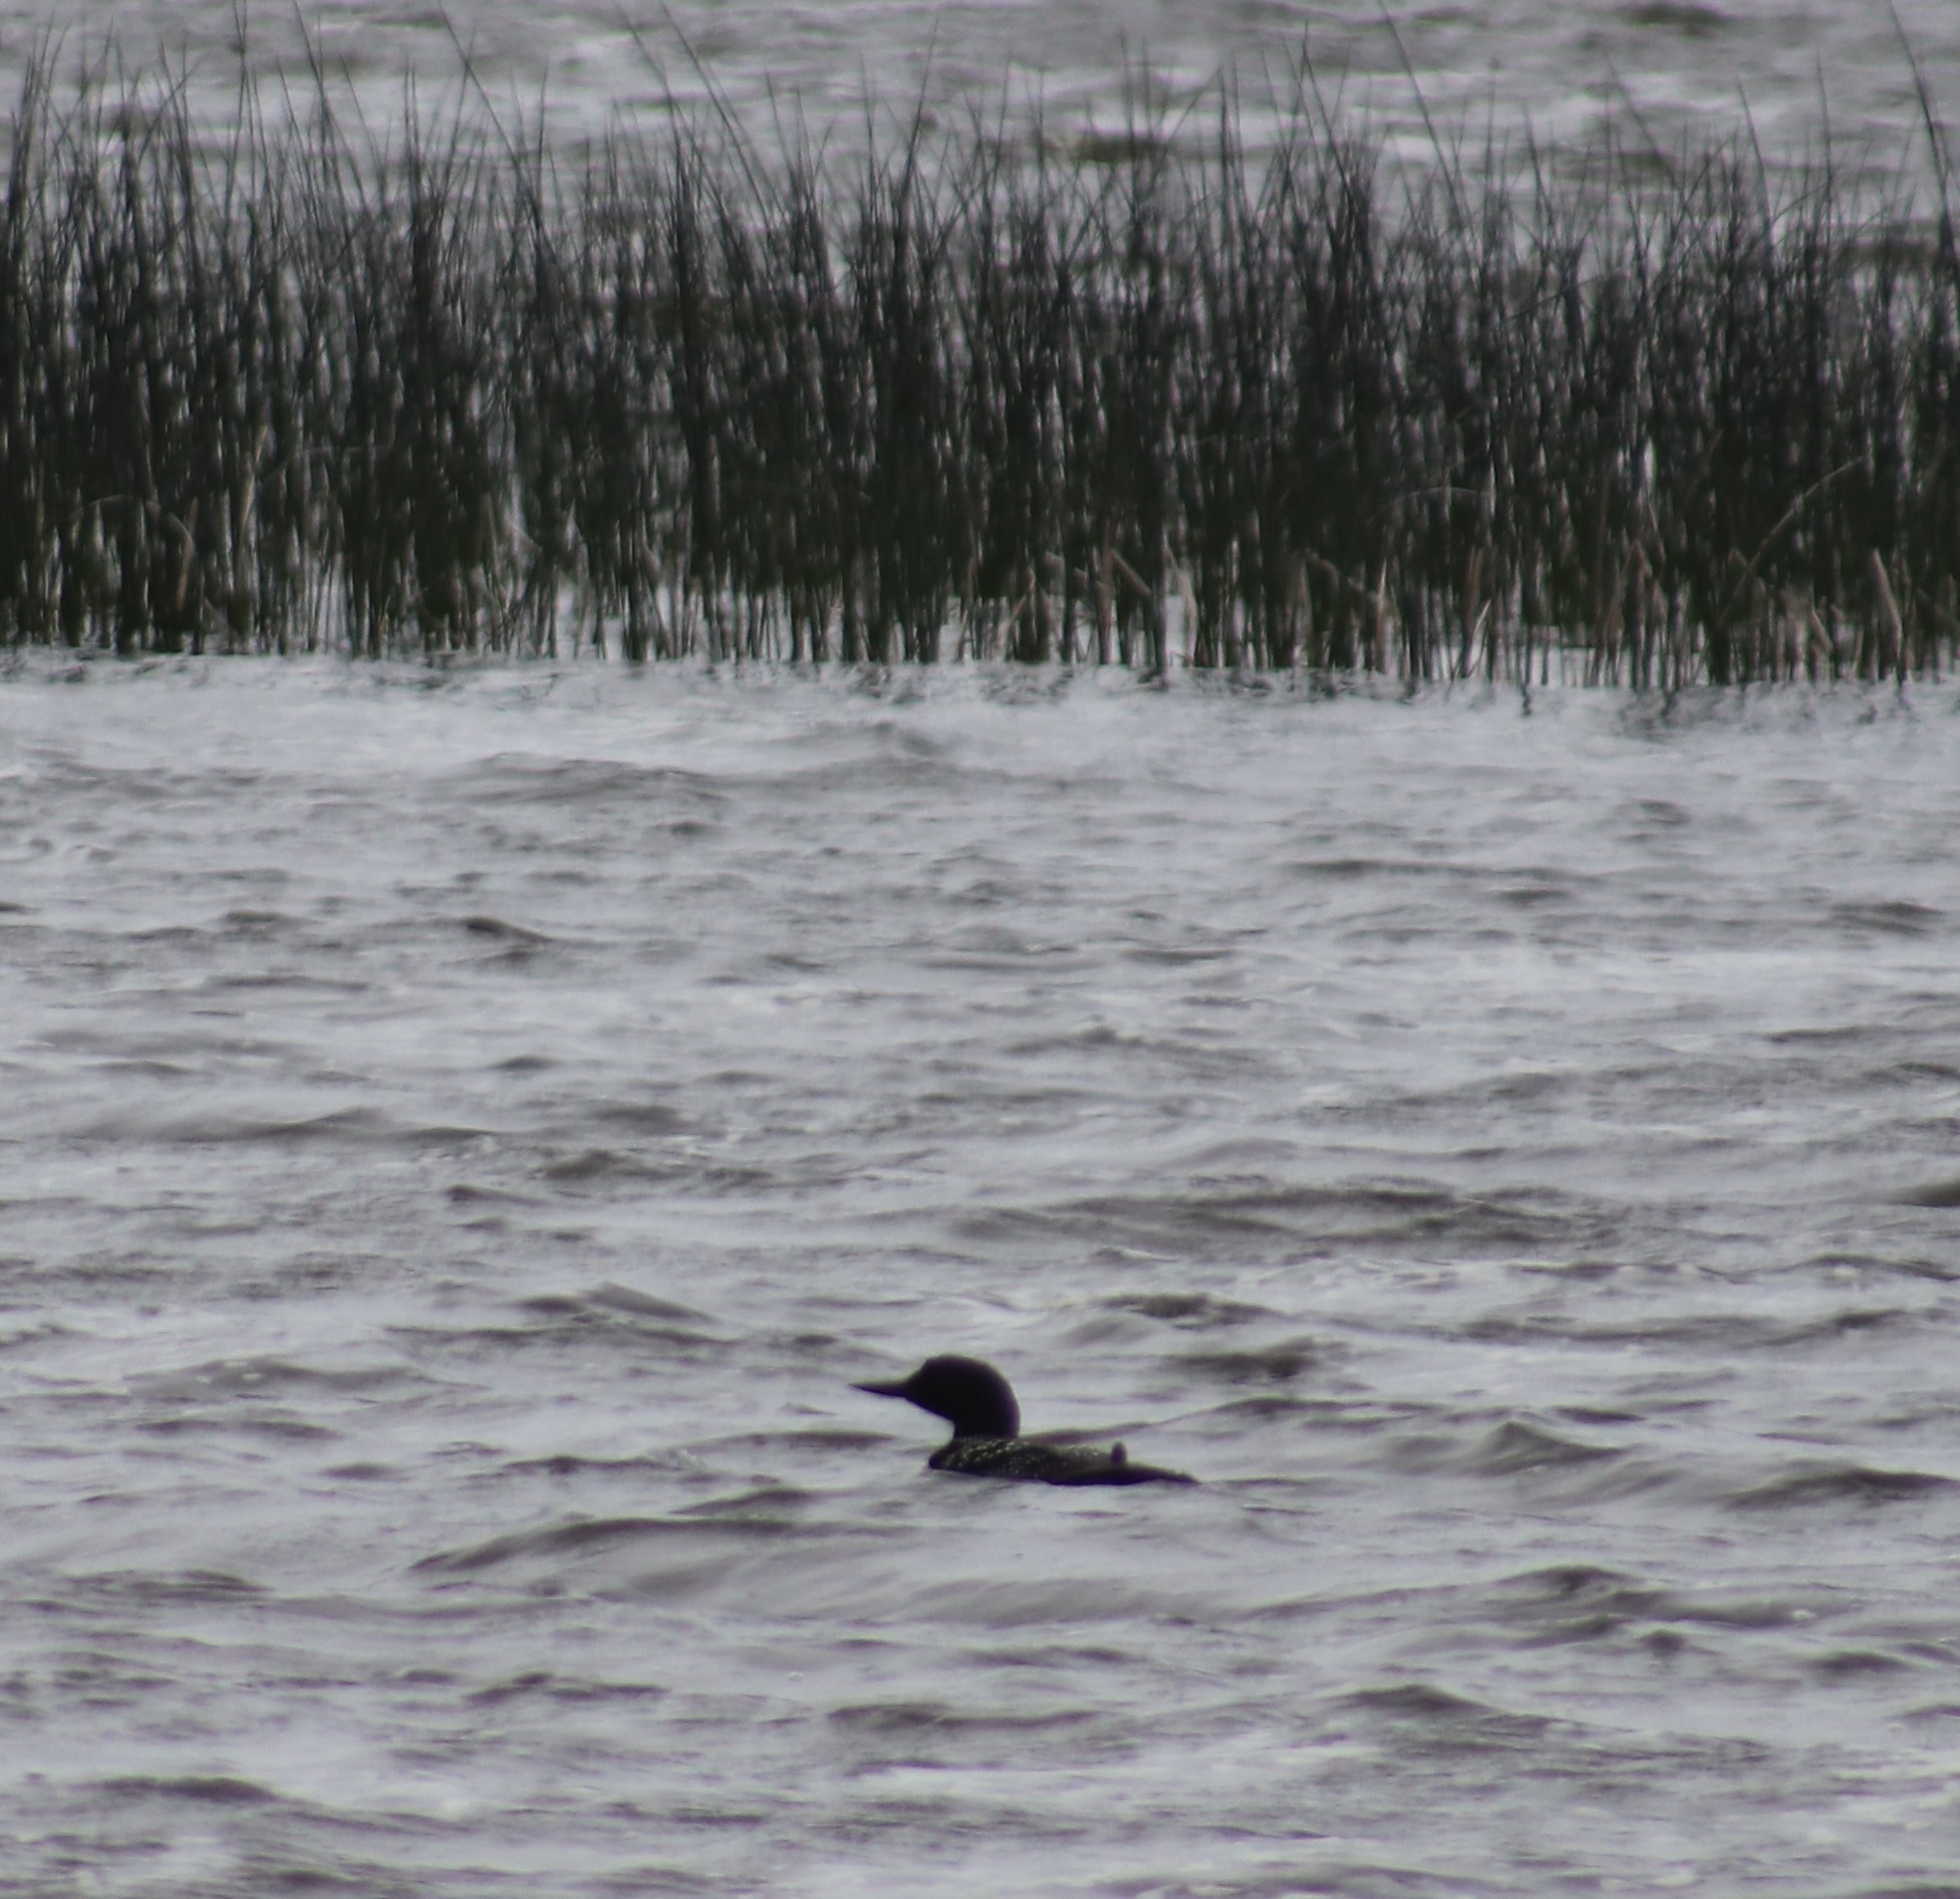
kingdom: Animalia
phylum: Chordata
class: Aves
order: Gaviiformes
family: Gaviidae
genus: Gavia
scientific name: Gavia immer
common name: Common loon
